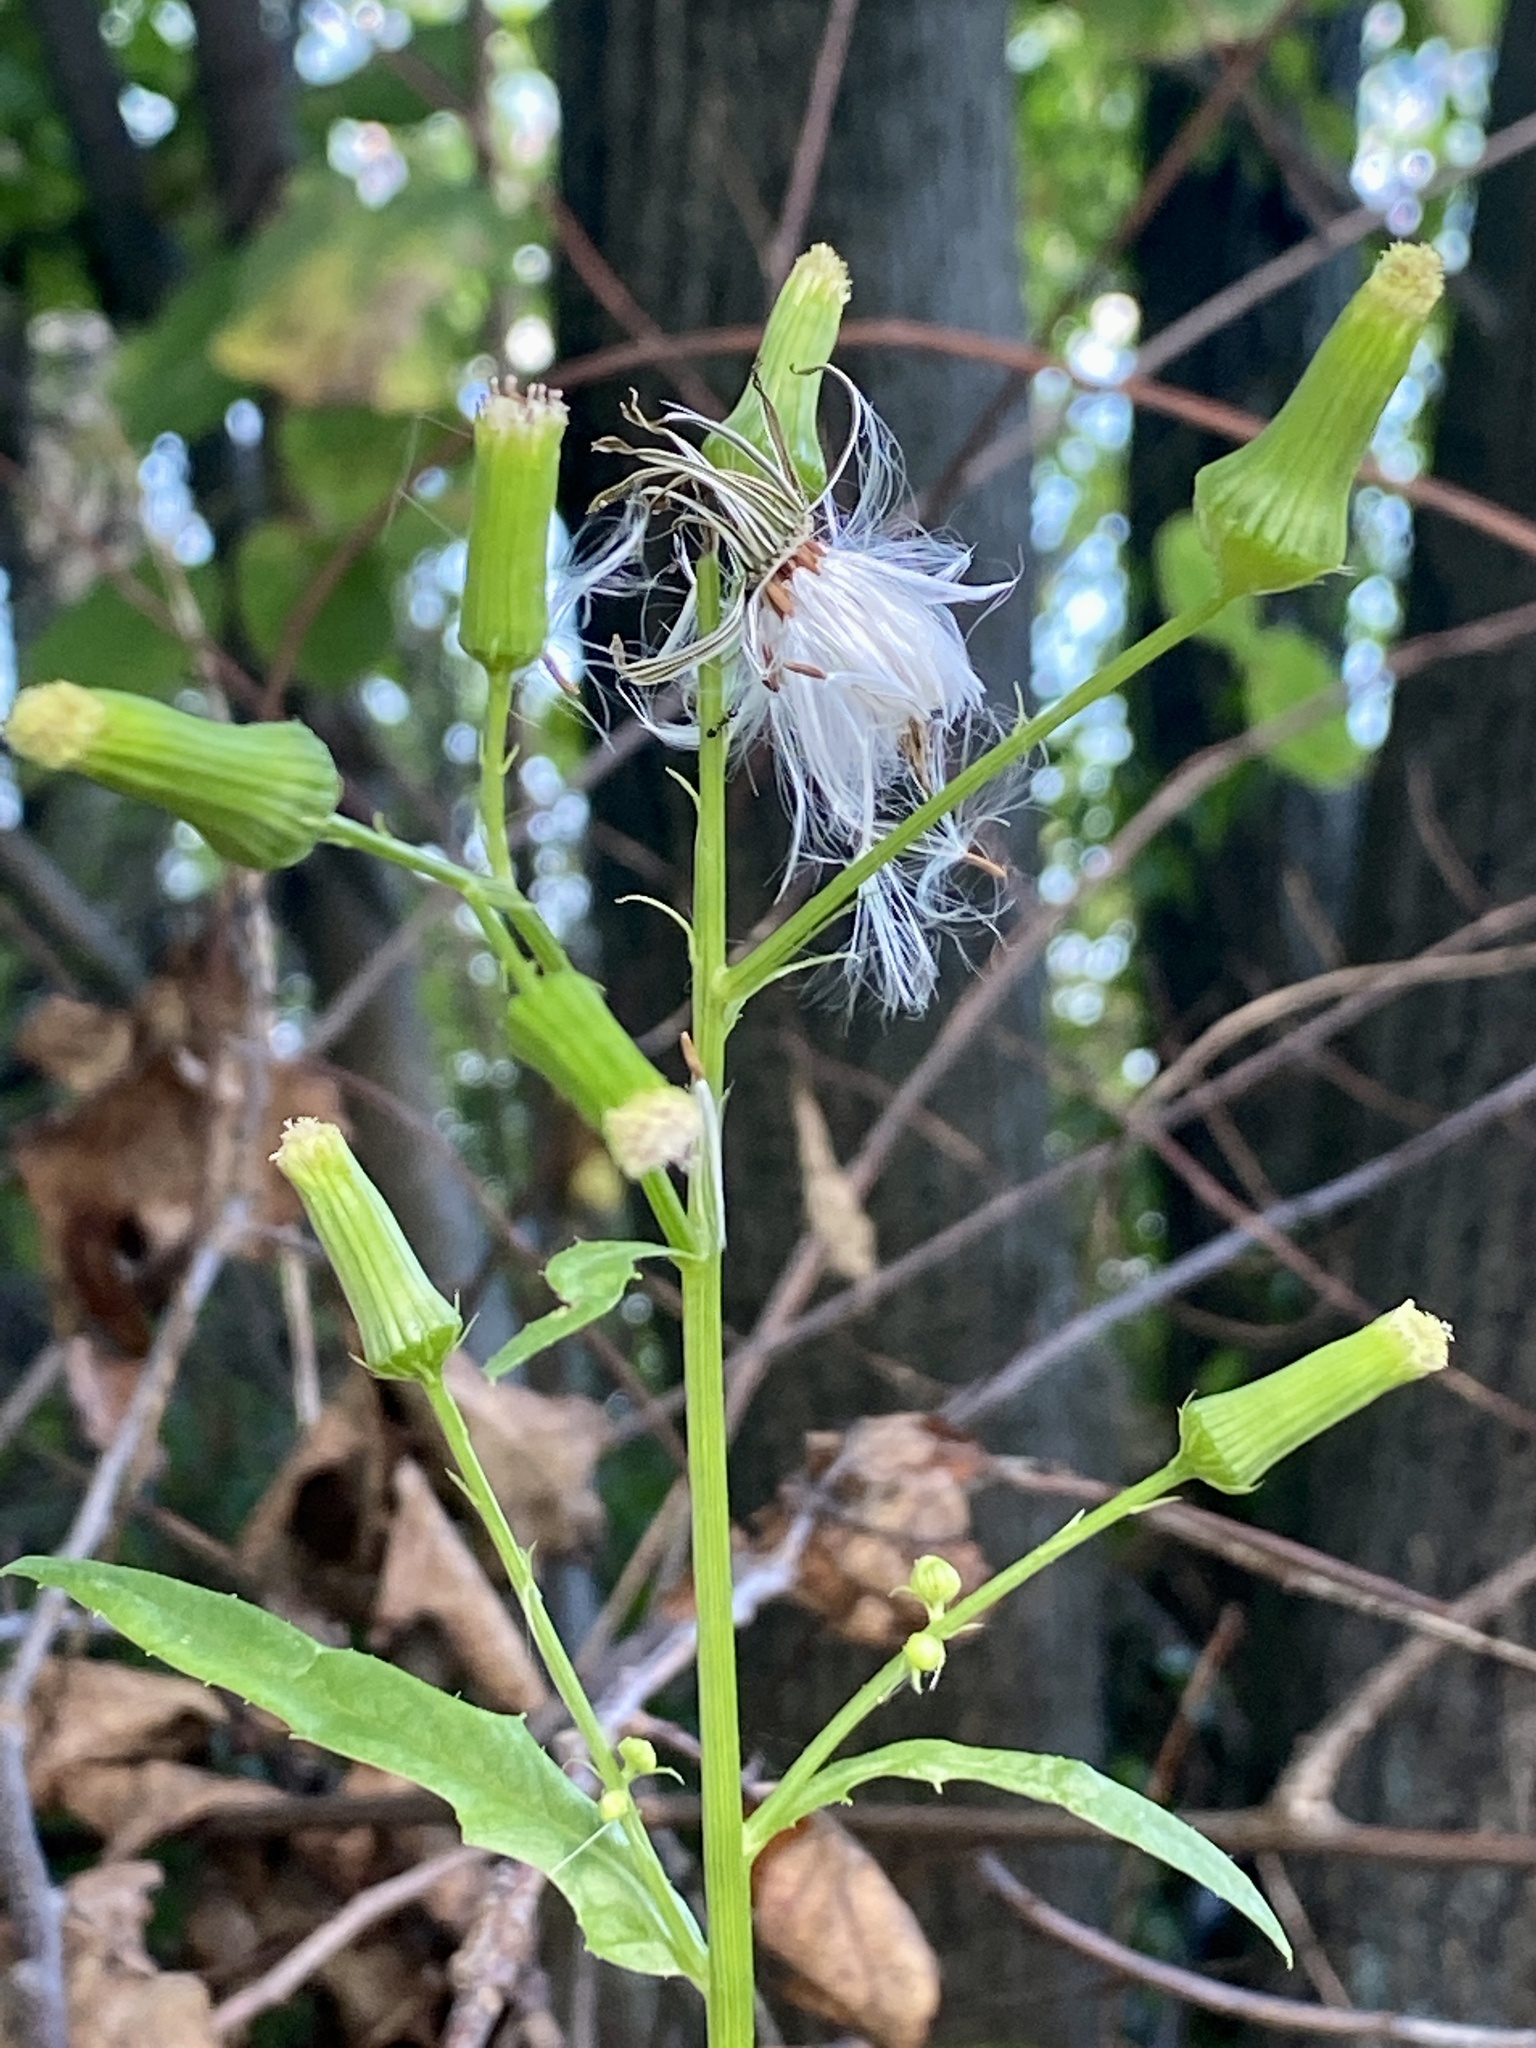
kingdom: Plantae
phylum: Tracheophyta
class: Magnoliopsida
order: Asterales
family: Asteraceae
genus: Erechtites
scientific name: Erechtites hieraciifolius
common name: American burnweed
